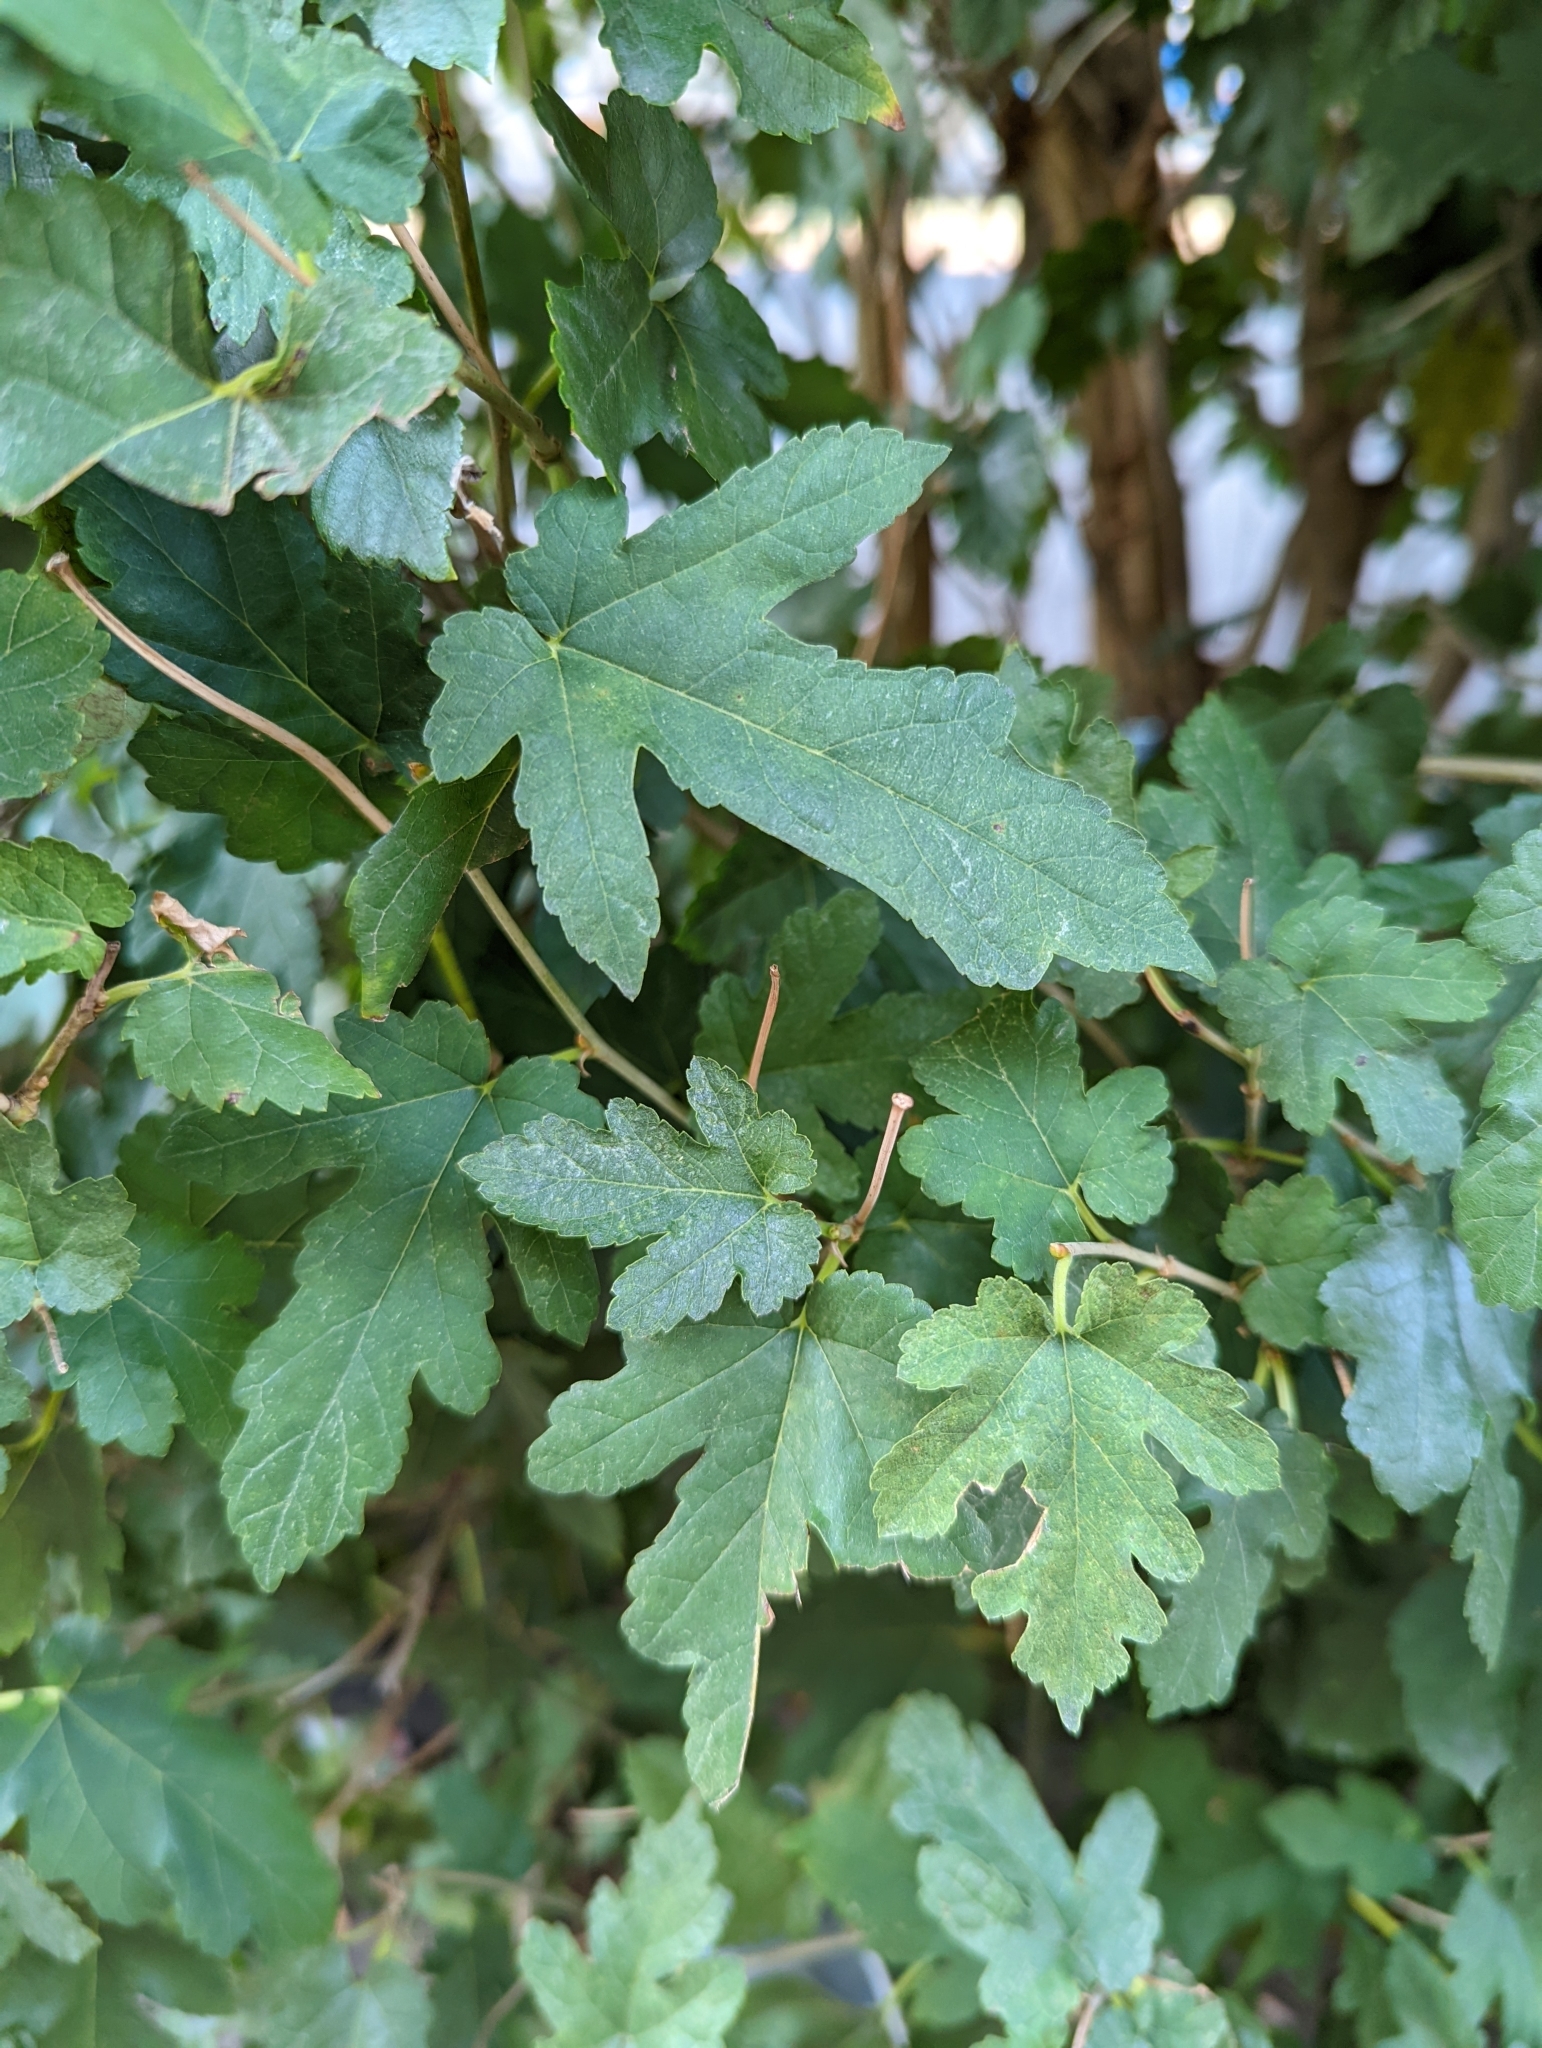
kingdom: Plantae
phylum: Tracheophyta
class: Magnoliopsida
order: Rosales
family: Moraceae
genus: Morus
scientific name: Morus indica
